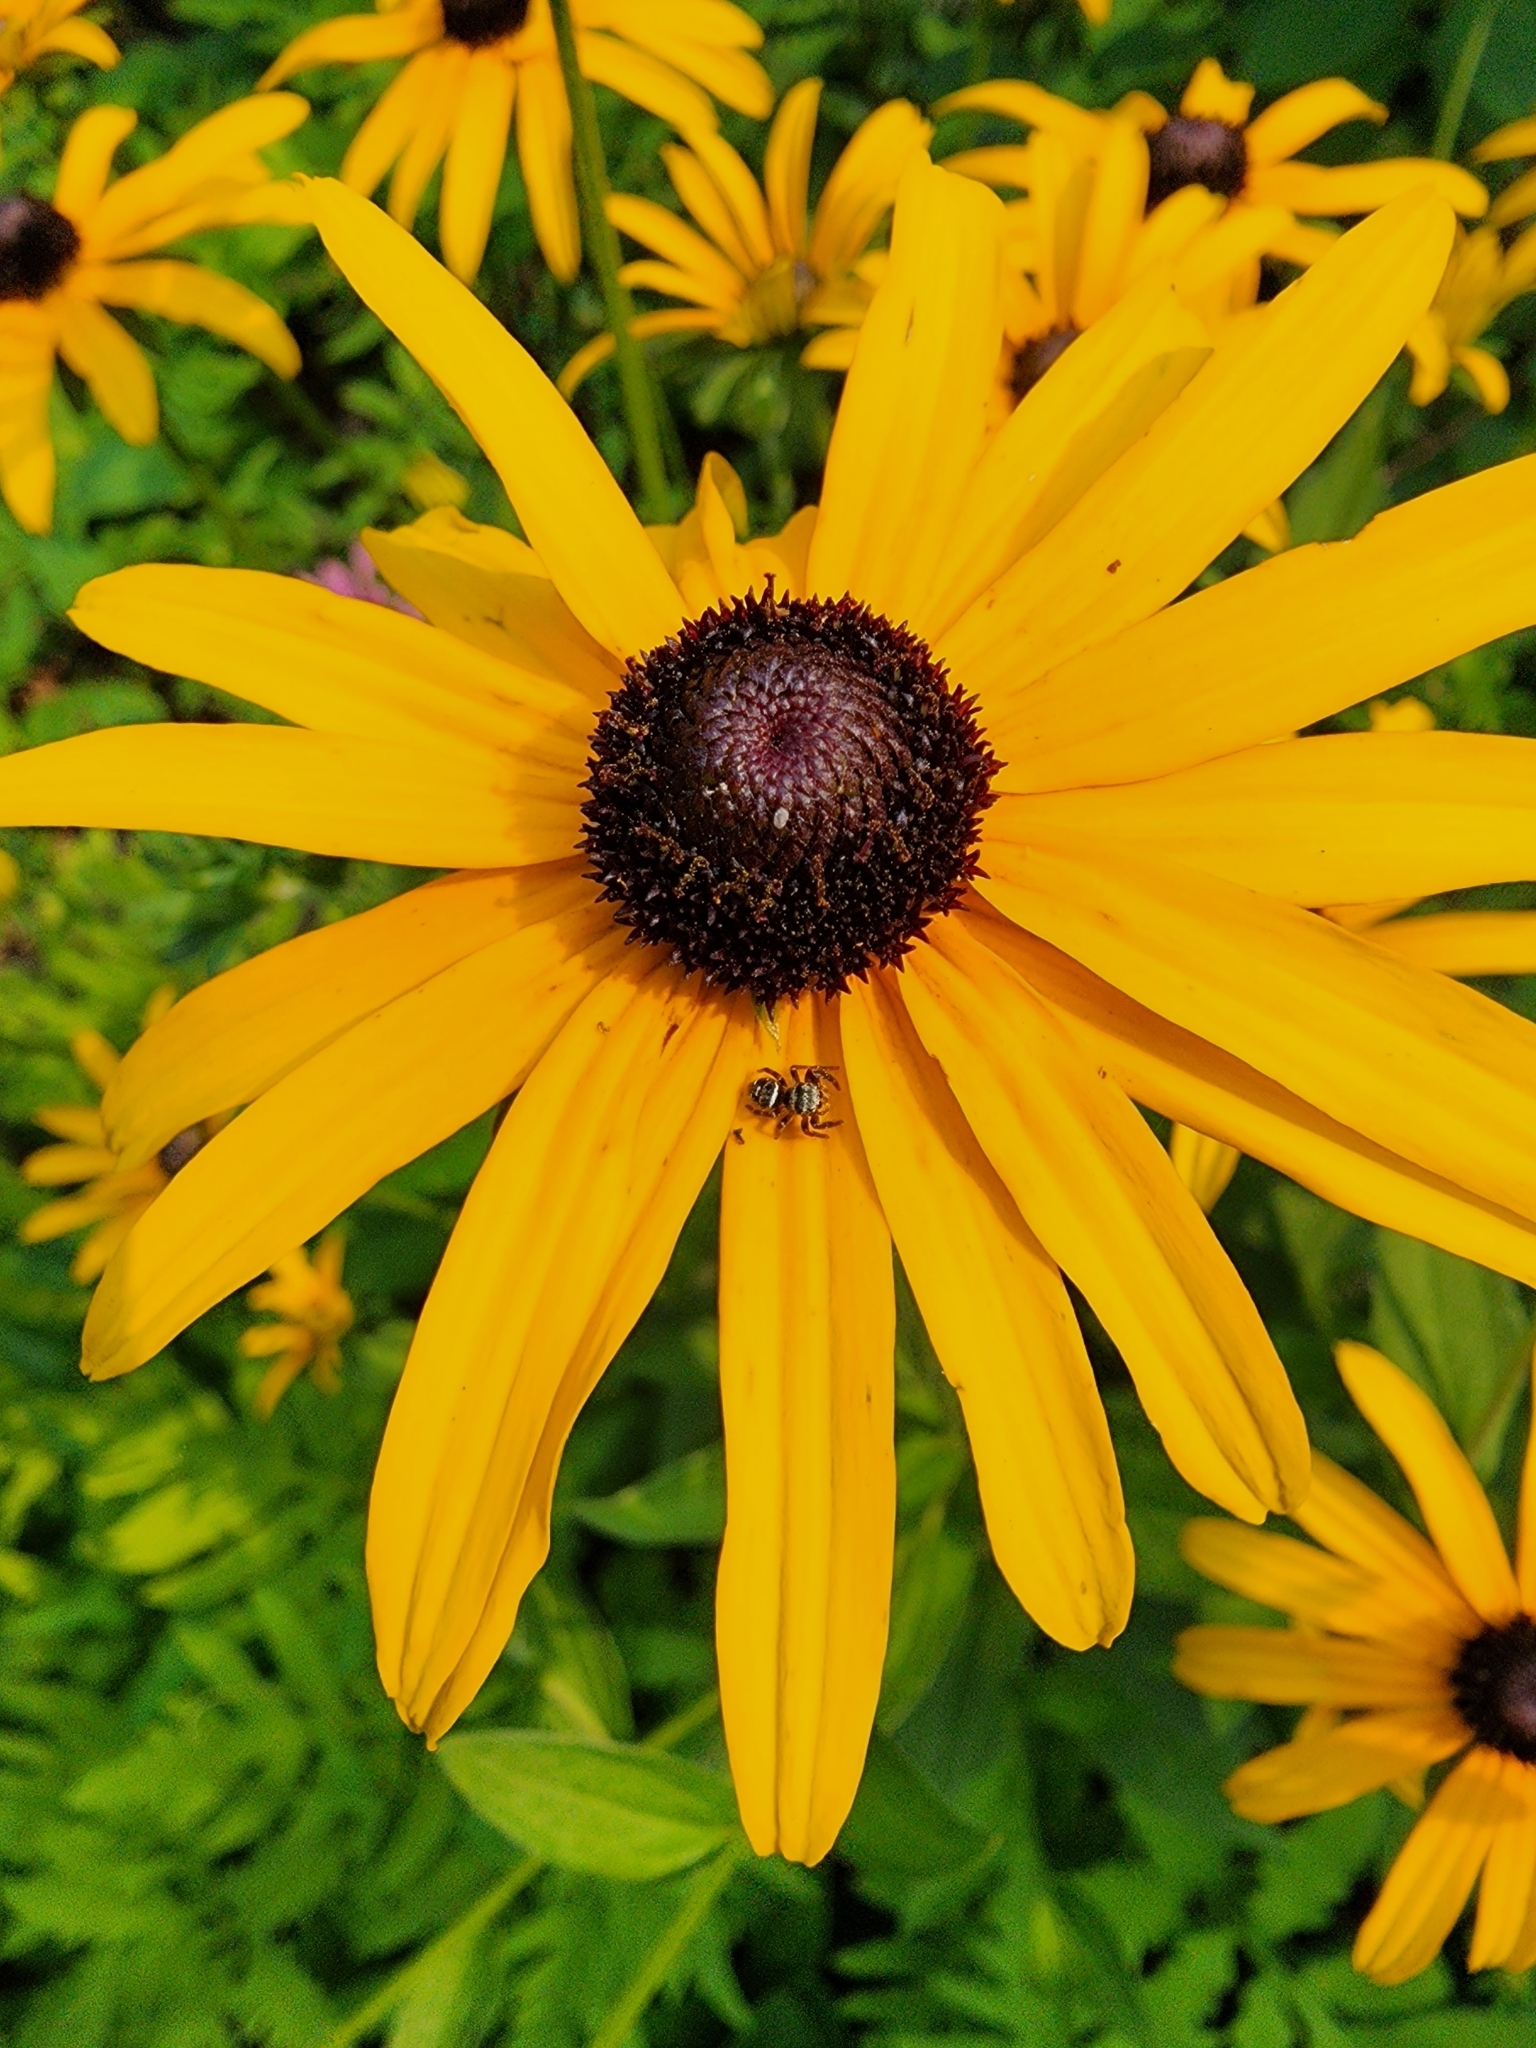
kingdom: Animalia
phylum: Arthropoda
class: Arachnida
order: Araneae
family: Salticidae
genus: Phidippus
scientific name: Phidippus clarus
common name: Brilliant jumping spider
